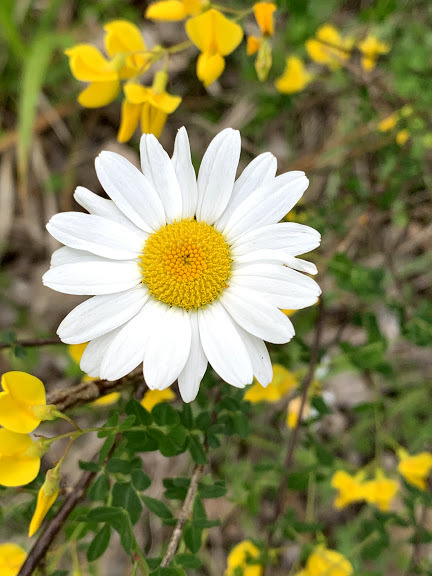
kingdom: Plantae
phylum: Tracheophyta
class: Magnoliopsida
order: Asterales
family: Asteraceae
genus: Leucanthemum
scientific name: Leucanthemum vulgare
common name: Oxeye daisy
